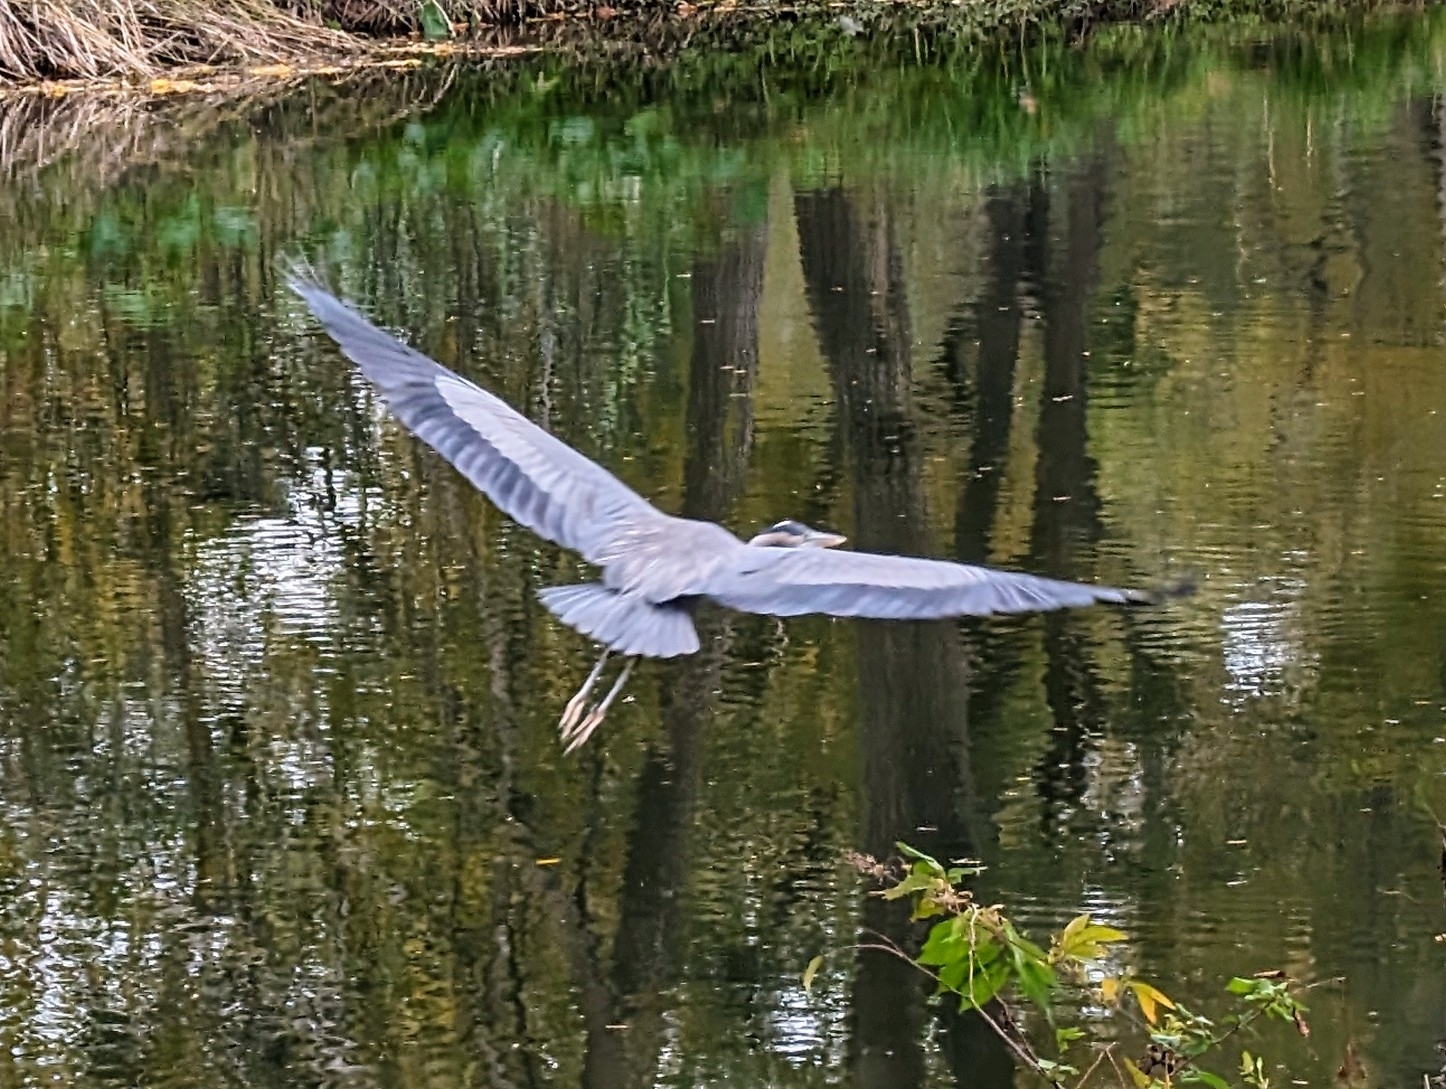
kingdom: Animalia
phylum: Chordata
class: Aves
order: Pelecaniformes
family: Ardeidae
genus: Ardea
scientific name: Ardea herodias
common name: Great blue heron
